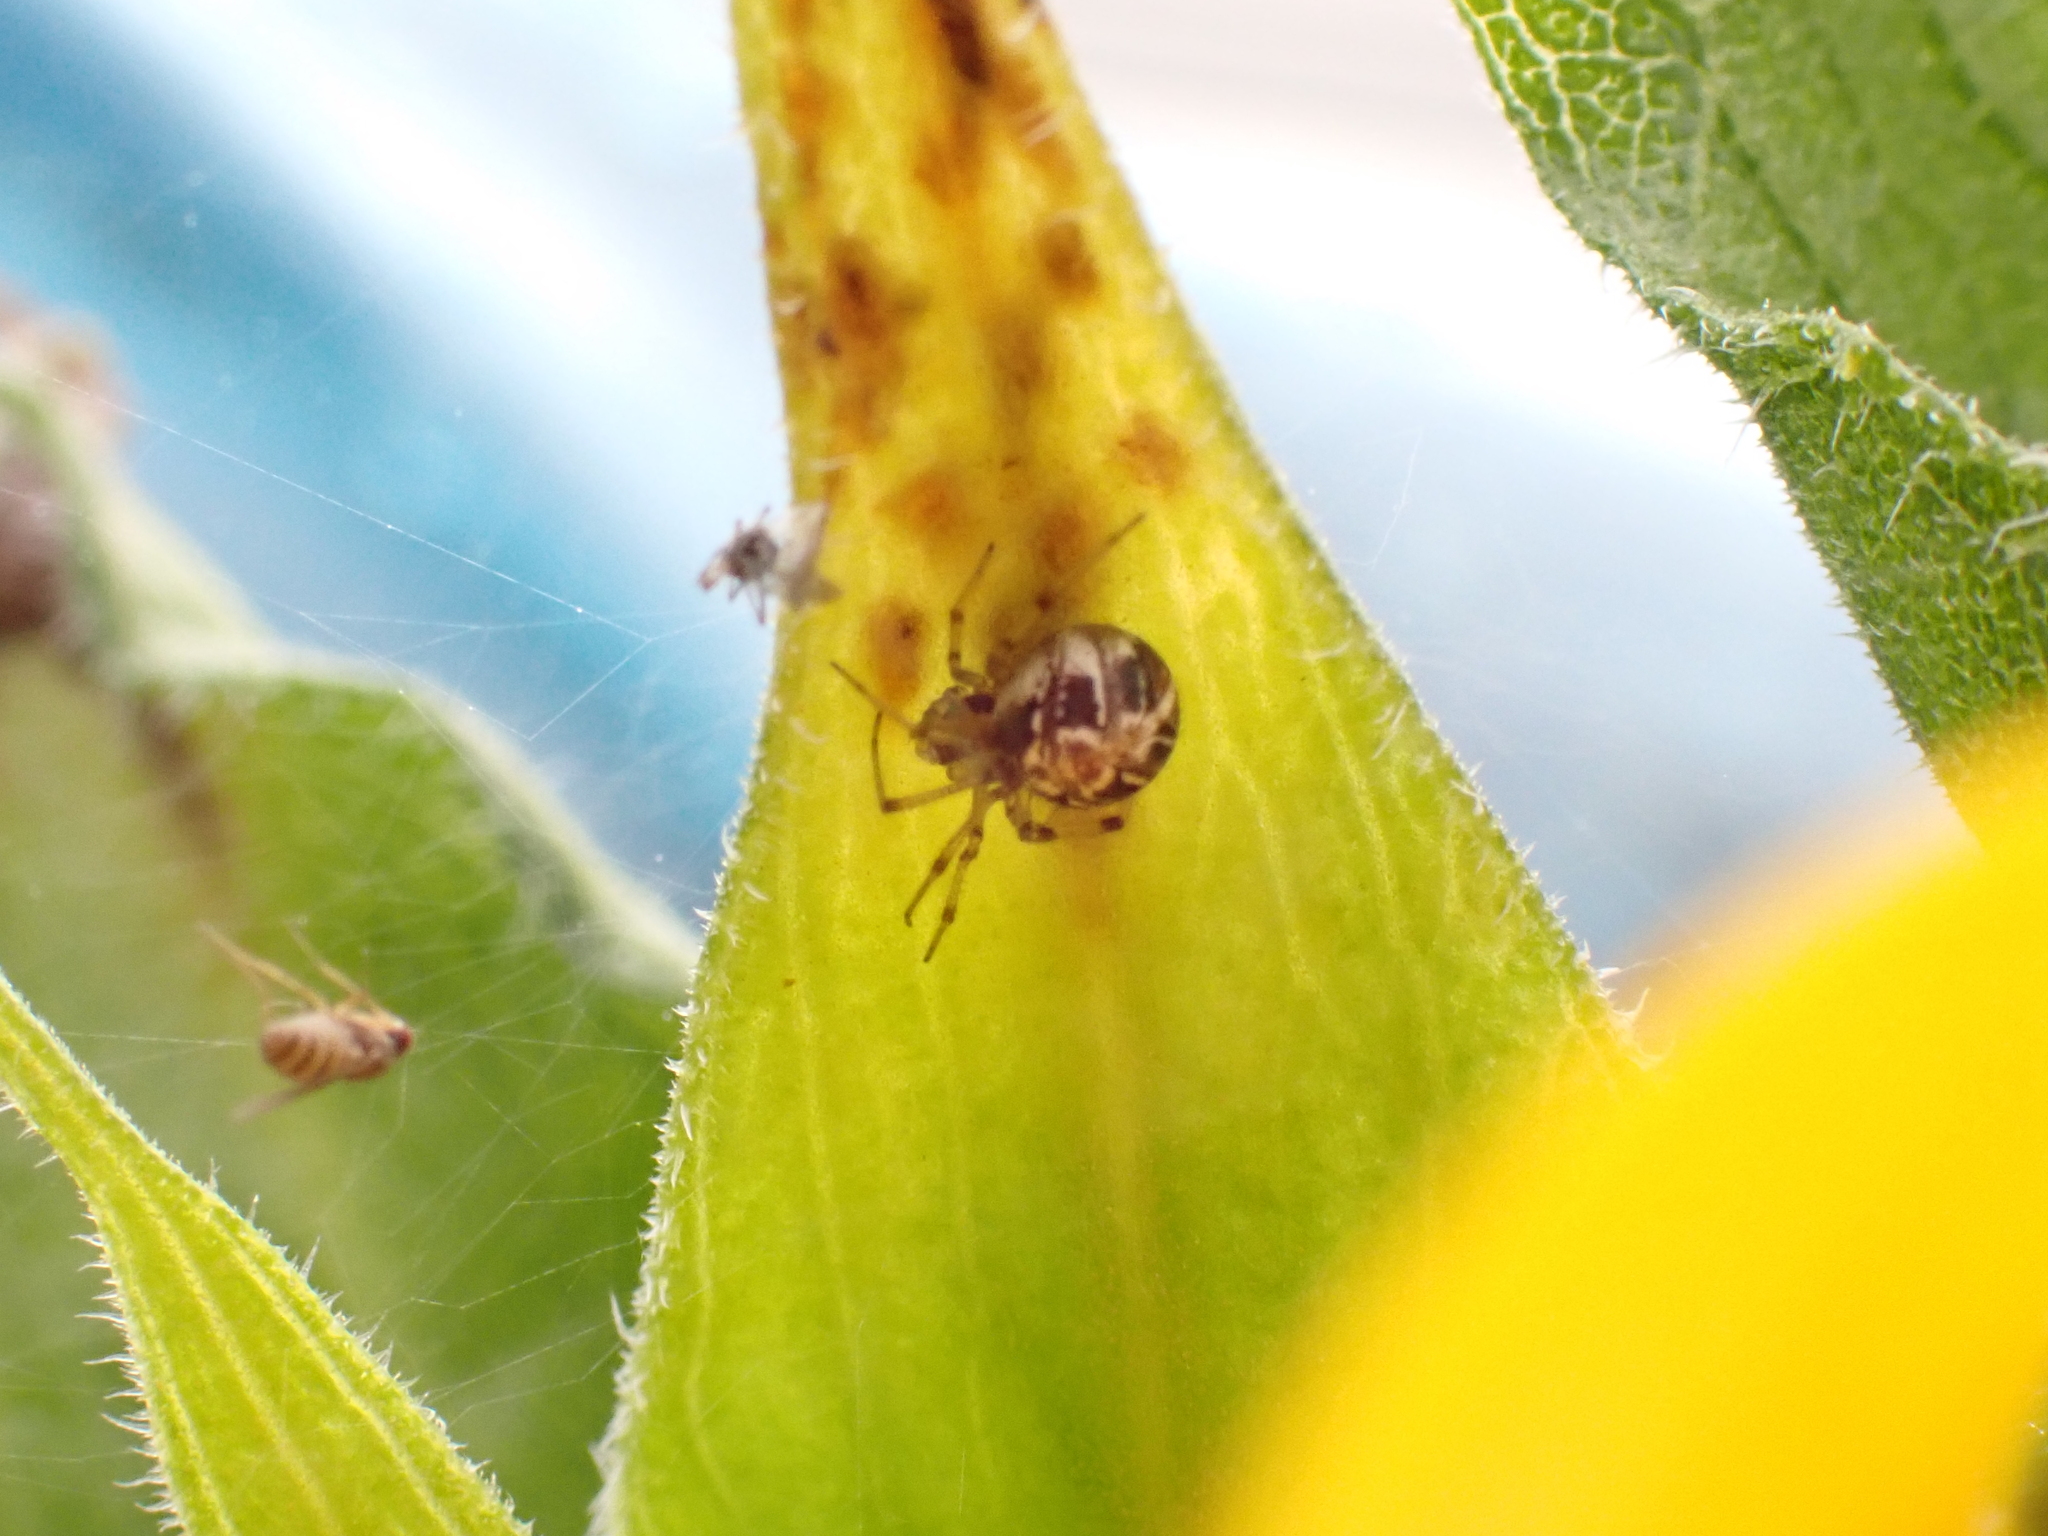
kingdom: Animalia
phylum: Arthropoda
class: Arachnida
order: Araneae
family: Theridiidae
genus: Phylloneta
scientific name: Phylloneta
